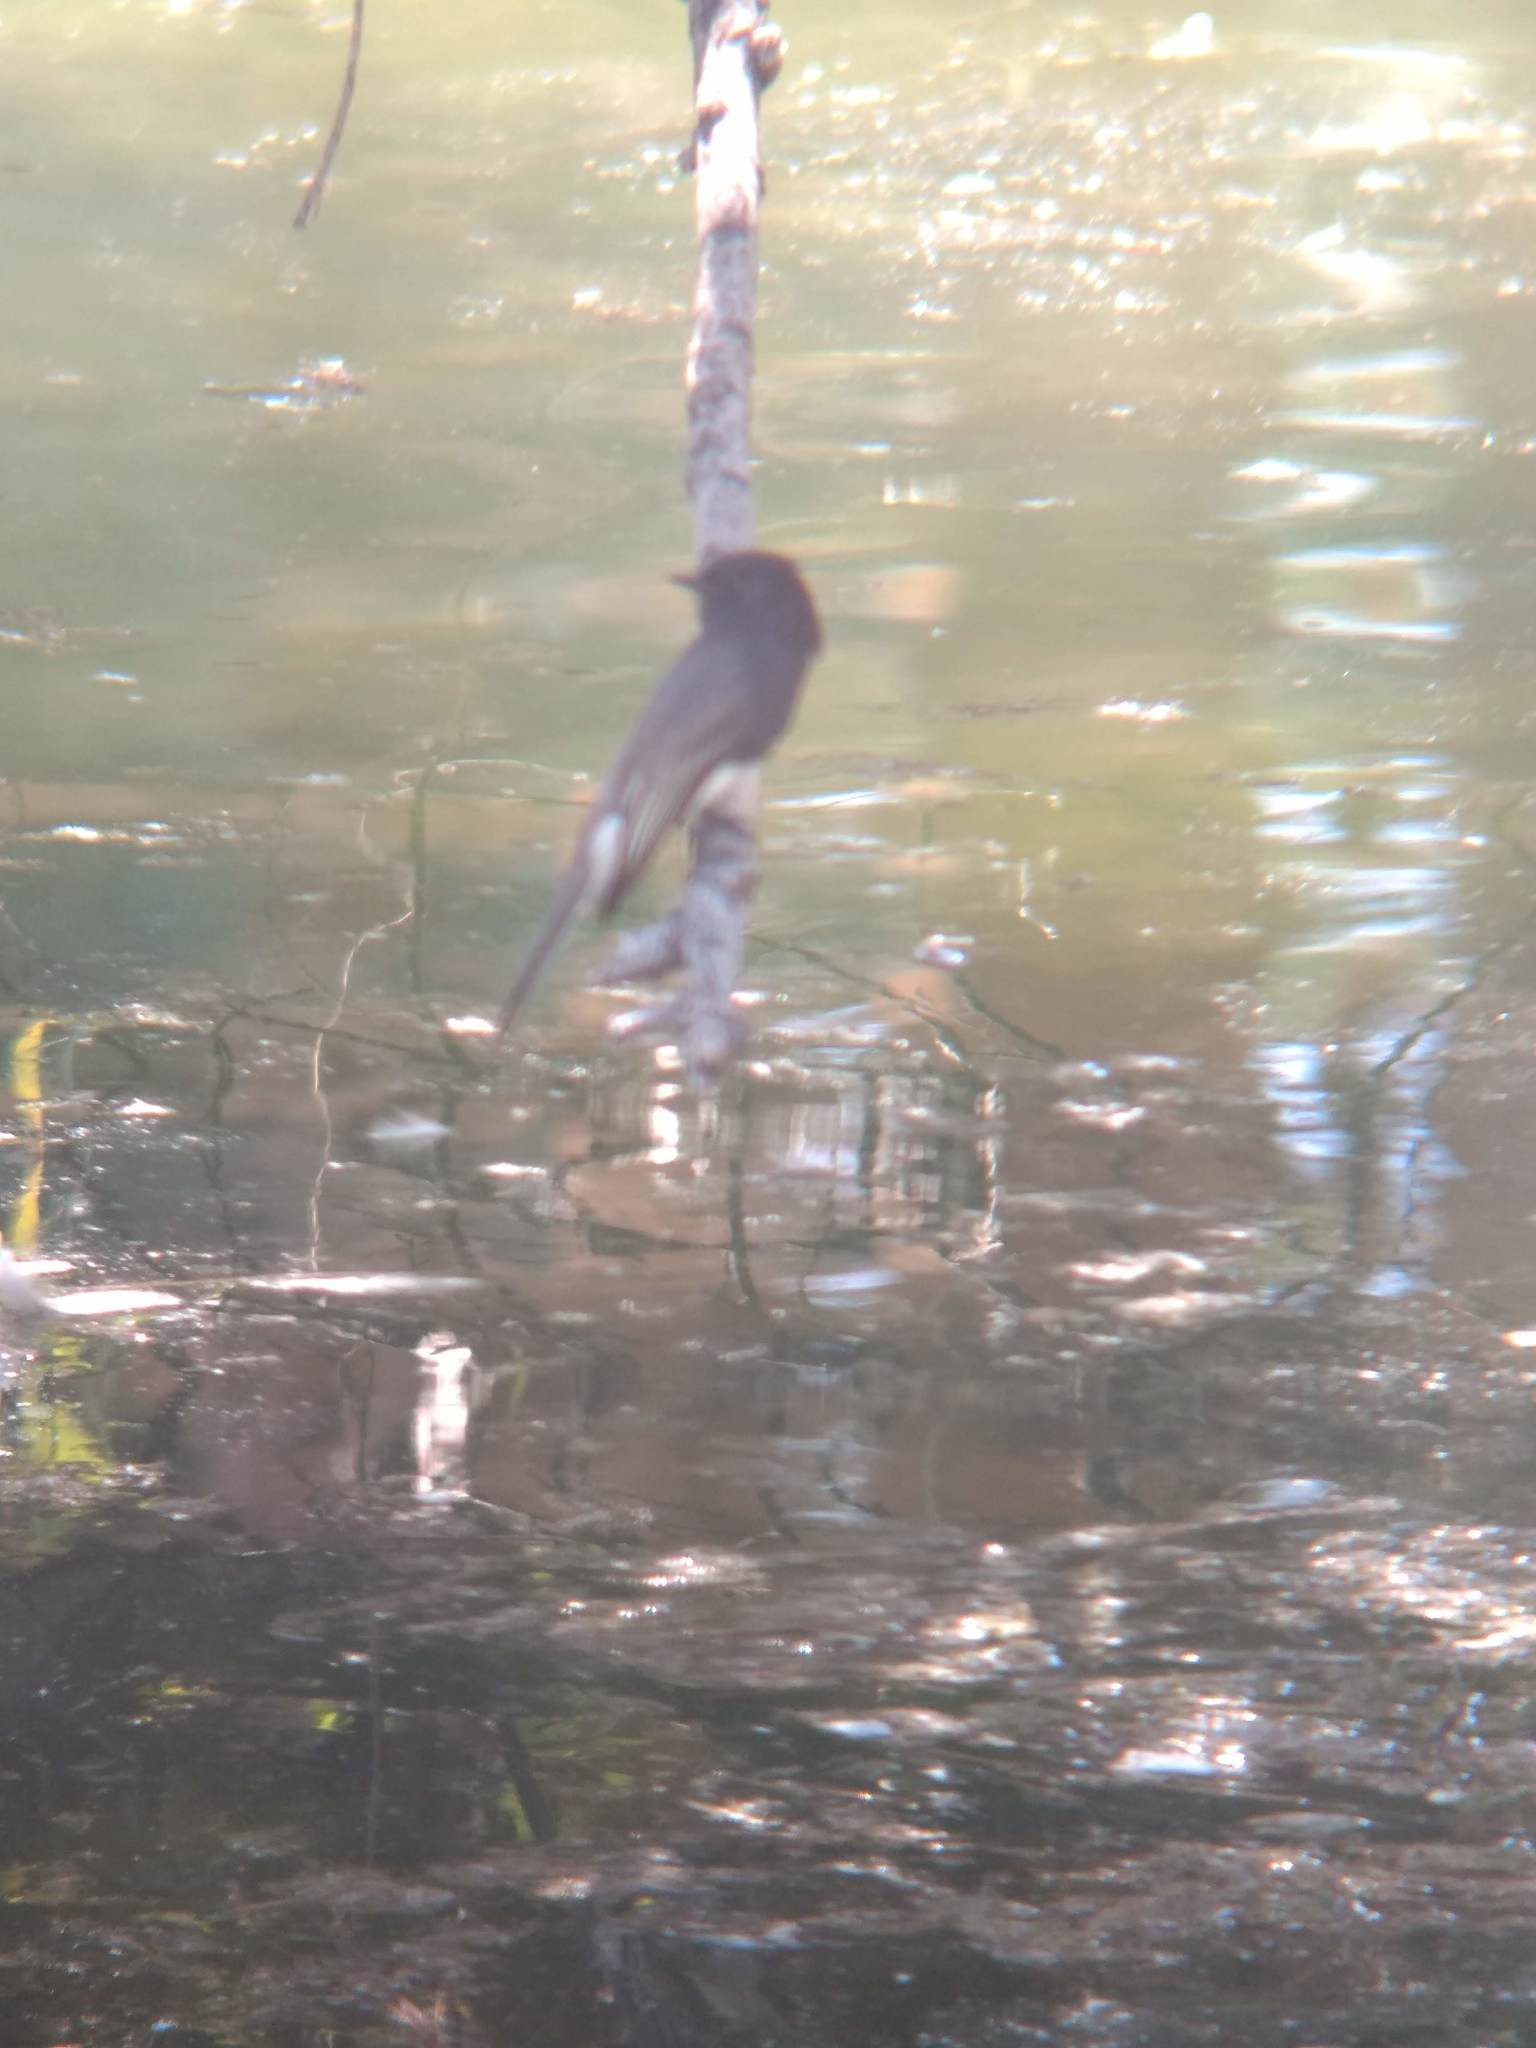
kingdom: Animalia
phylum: Chordata
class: Aves
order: Passeriformes
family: Tyrannidae
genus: Sayornis
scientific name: Sayornis nigricans
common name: Black phoebe
